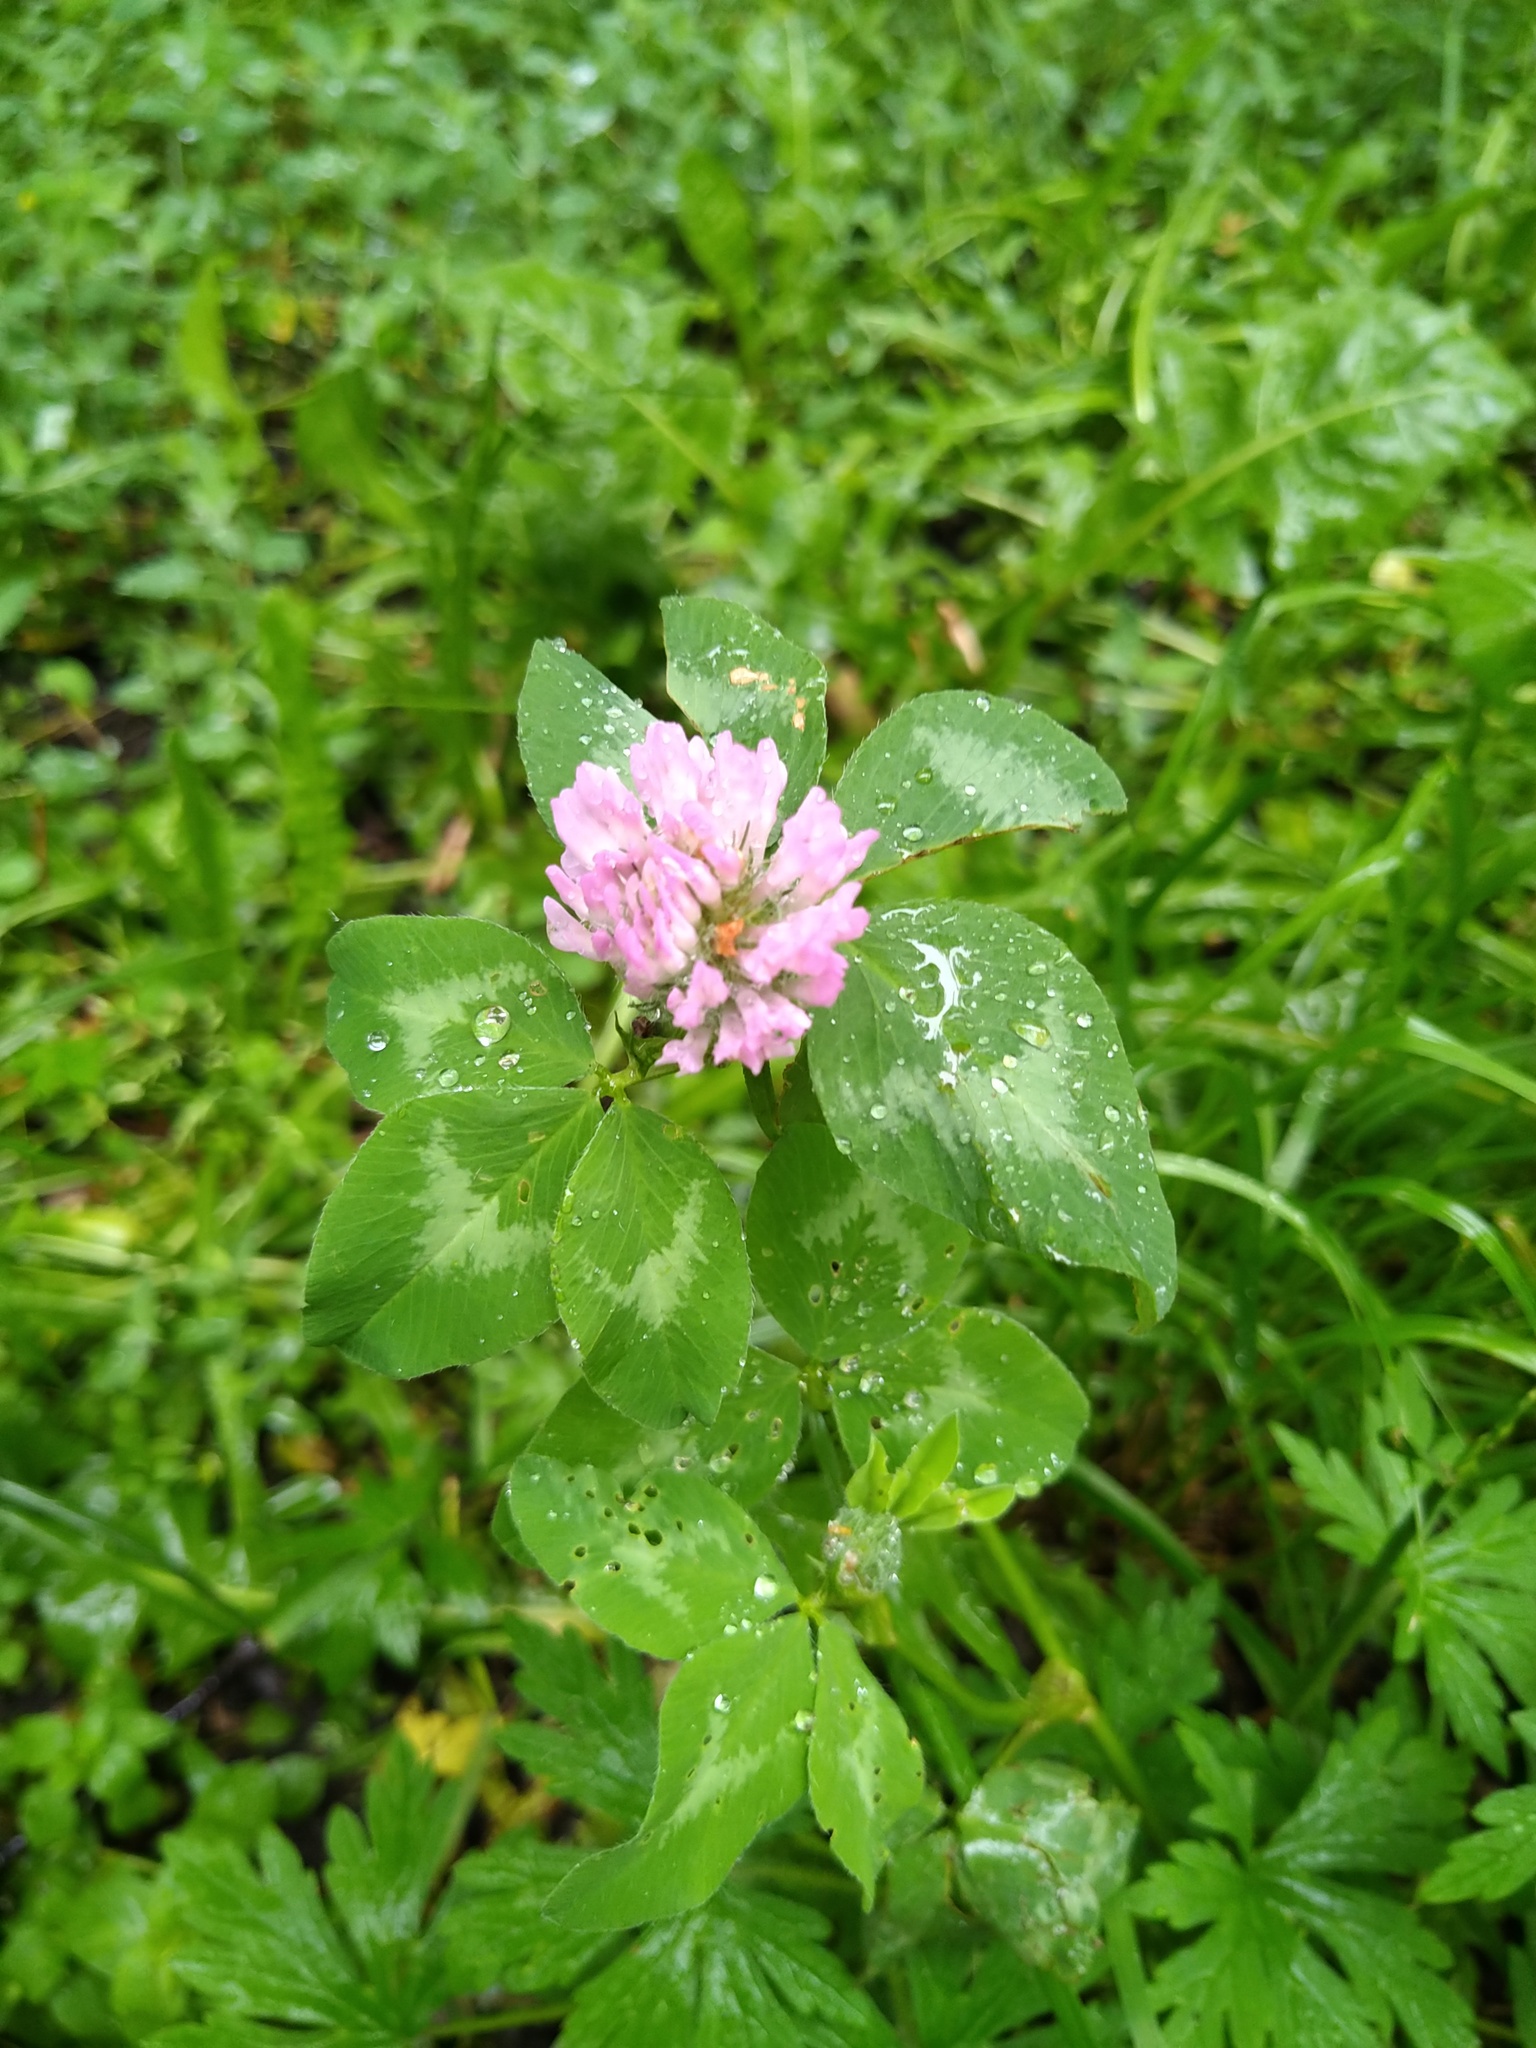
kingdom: Plantae
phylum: Tracheophyta
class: Magnoliopsida
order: Fabales
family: Fabaceae
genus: Trifolium
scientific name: Trifolium pratense
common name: Red clover
